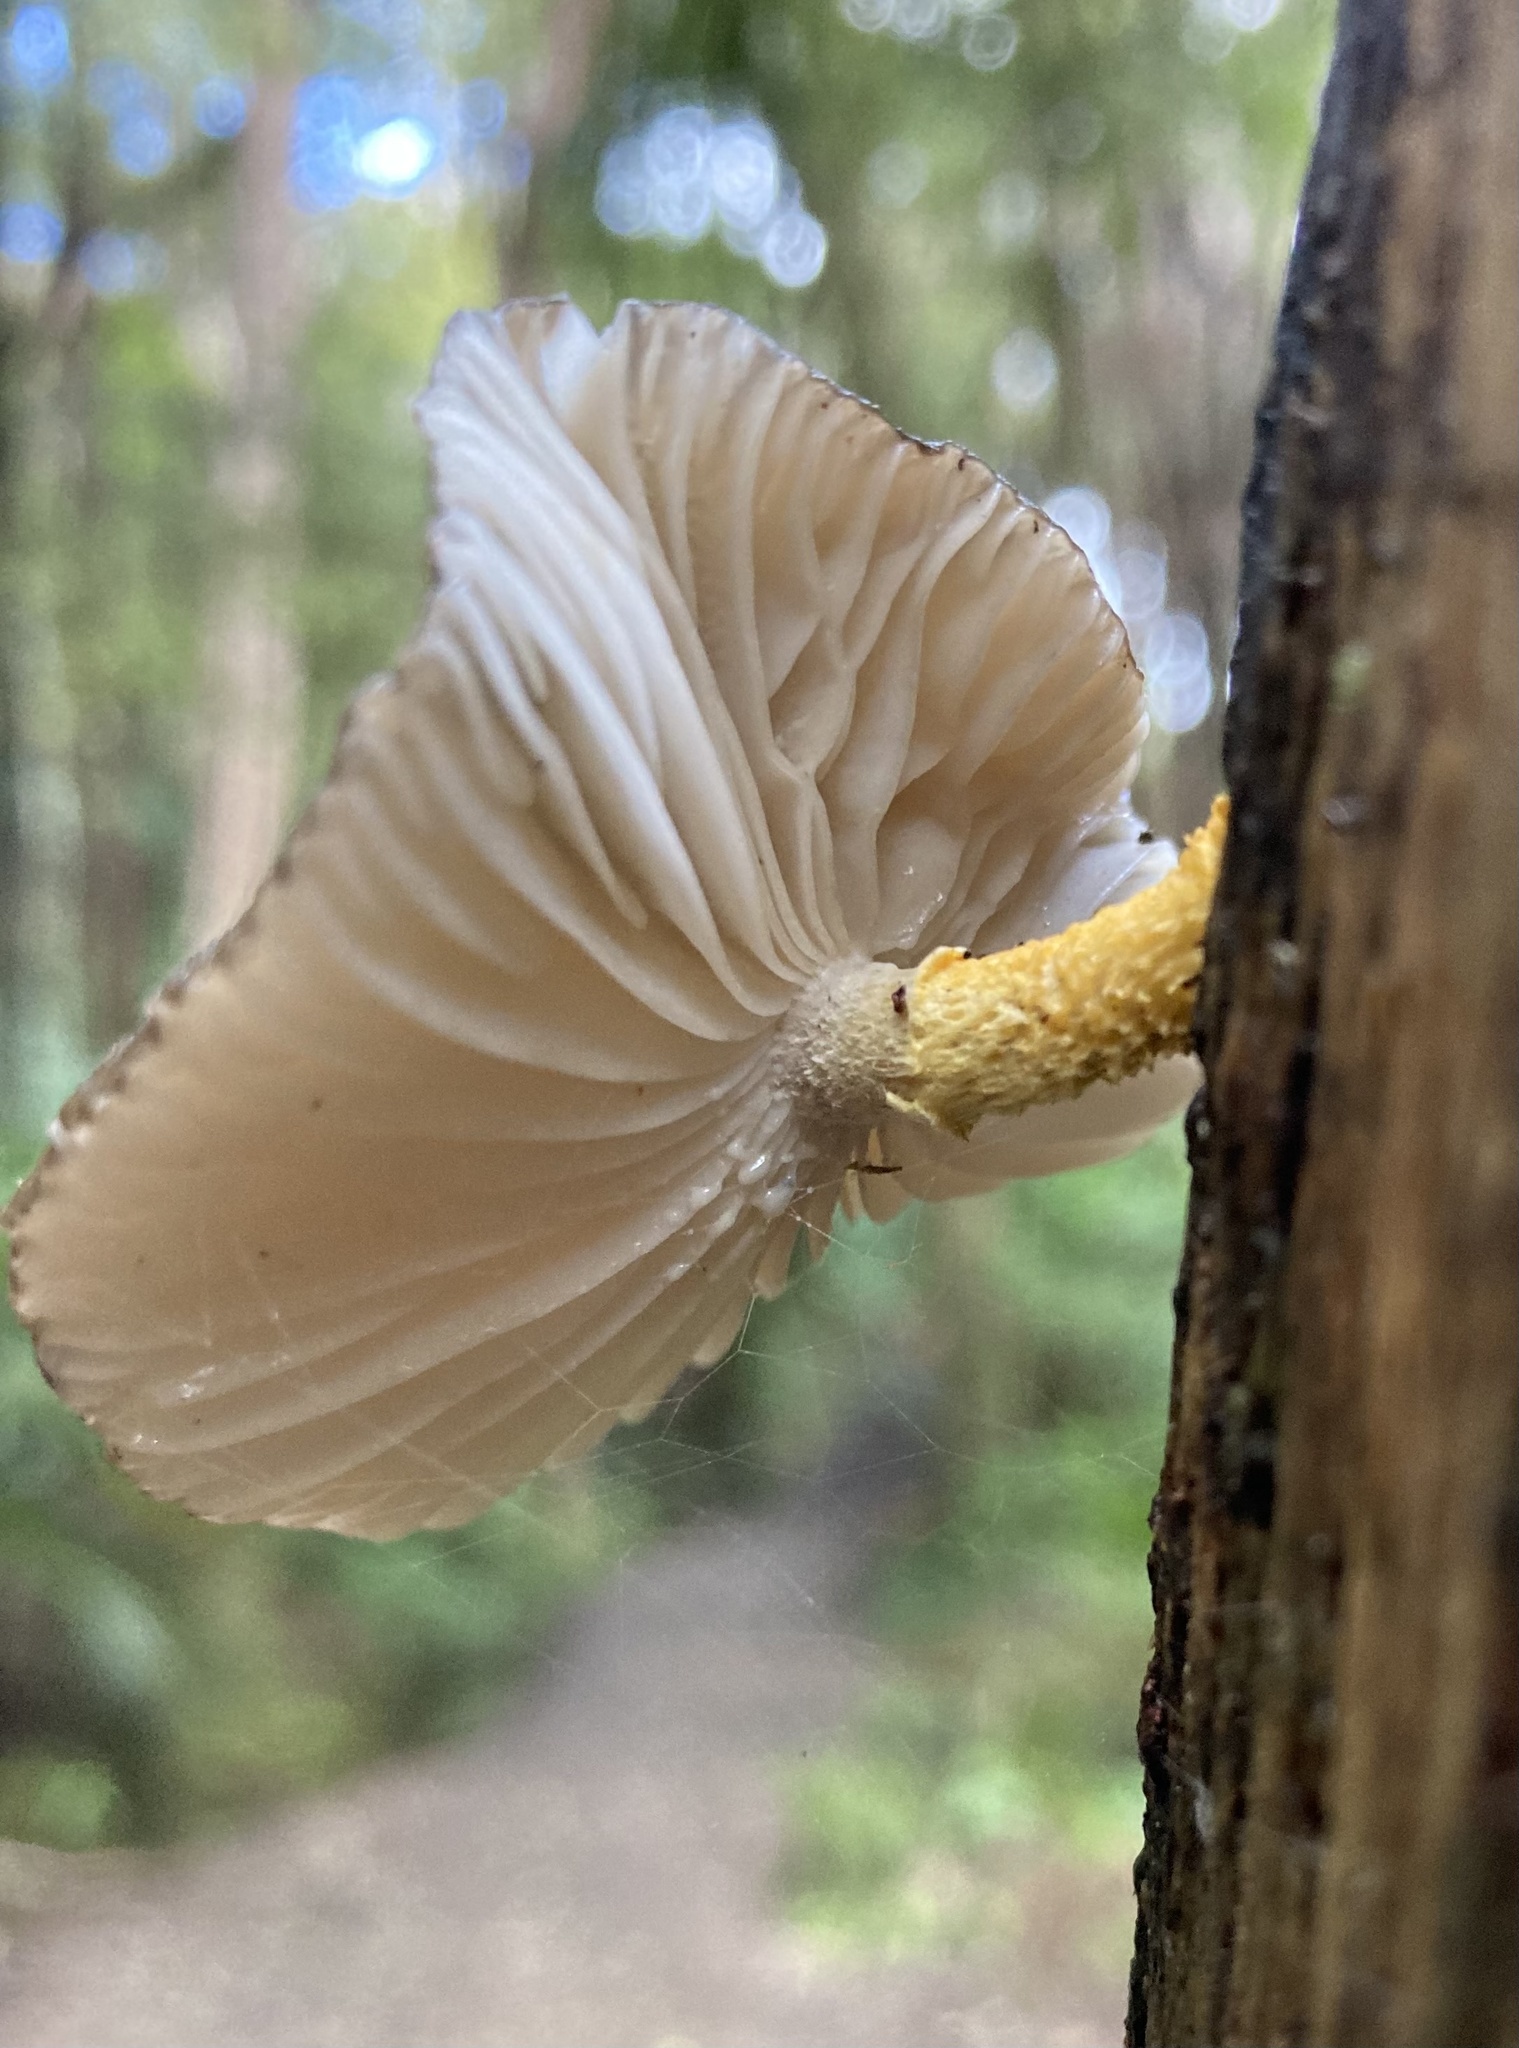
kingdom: Fungi
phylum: Basidiomycota
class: Agaricomycetes
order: Agaricales
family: Physalacriaceae
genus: Cyptotrama
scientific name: Cyptotrama
